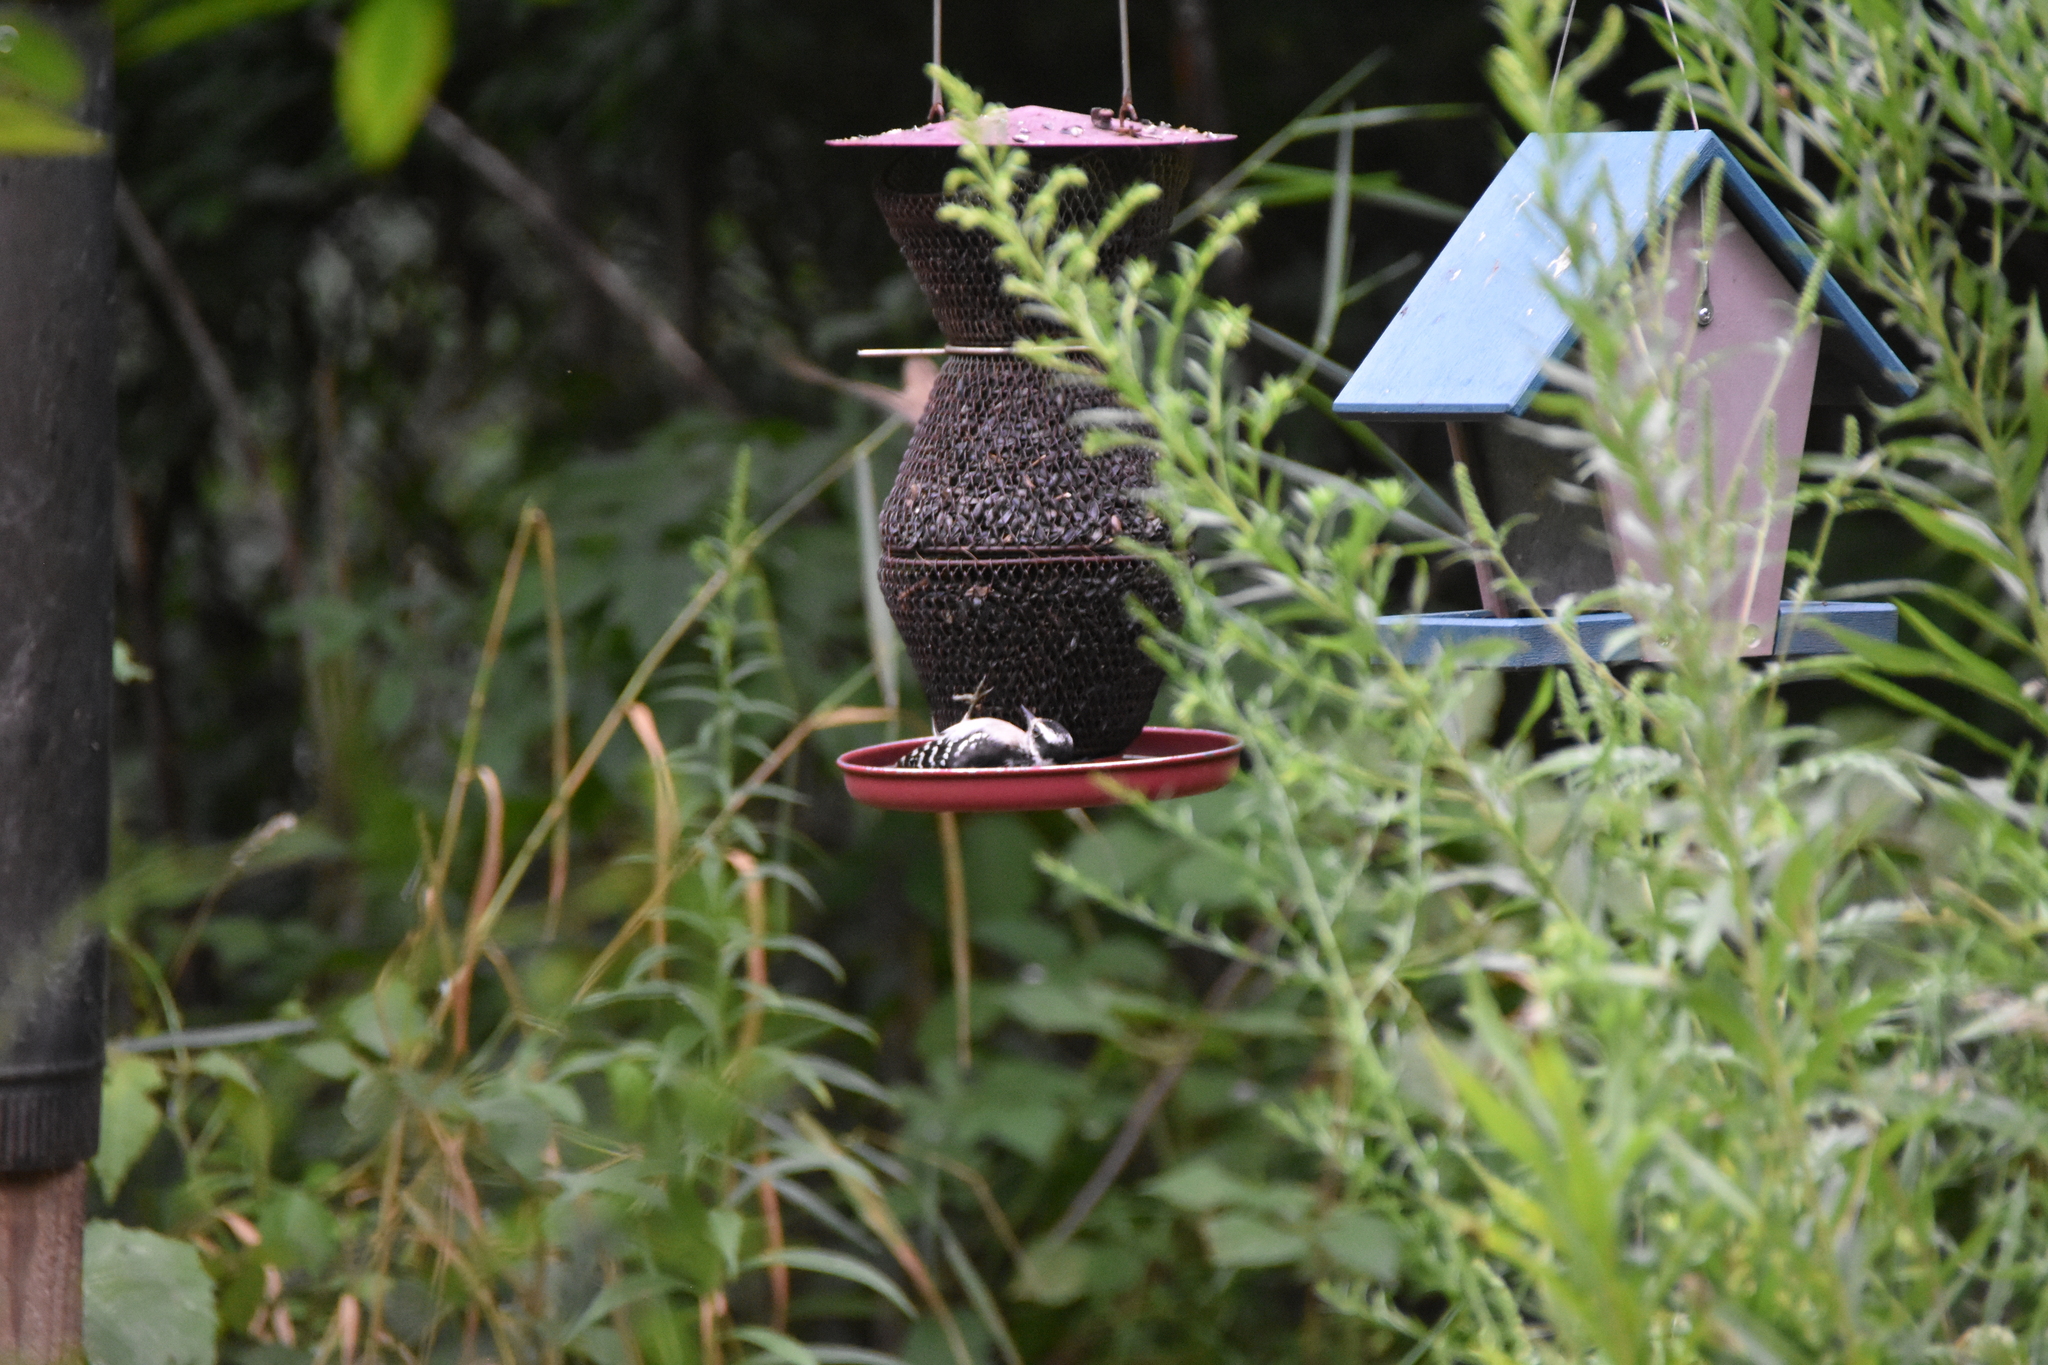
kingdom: Animalia
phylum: Chordata
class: Aves
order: Piciformes
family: Picidae
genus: Dryobates
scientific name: Dryobates pubescens
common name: Downy woodpecker
